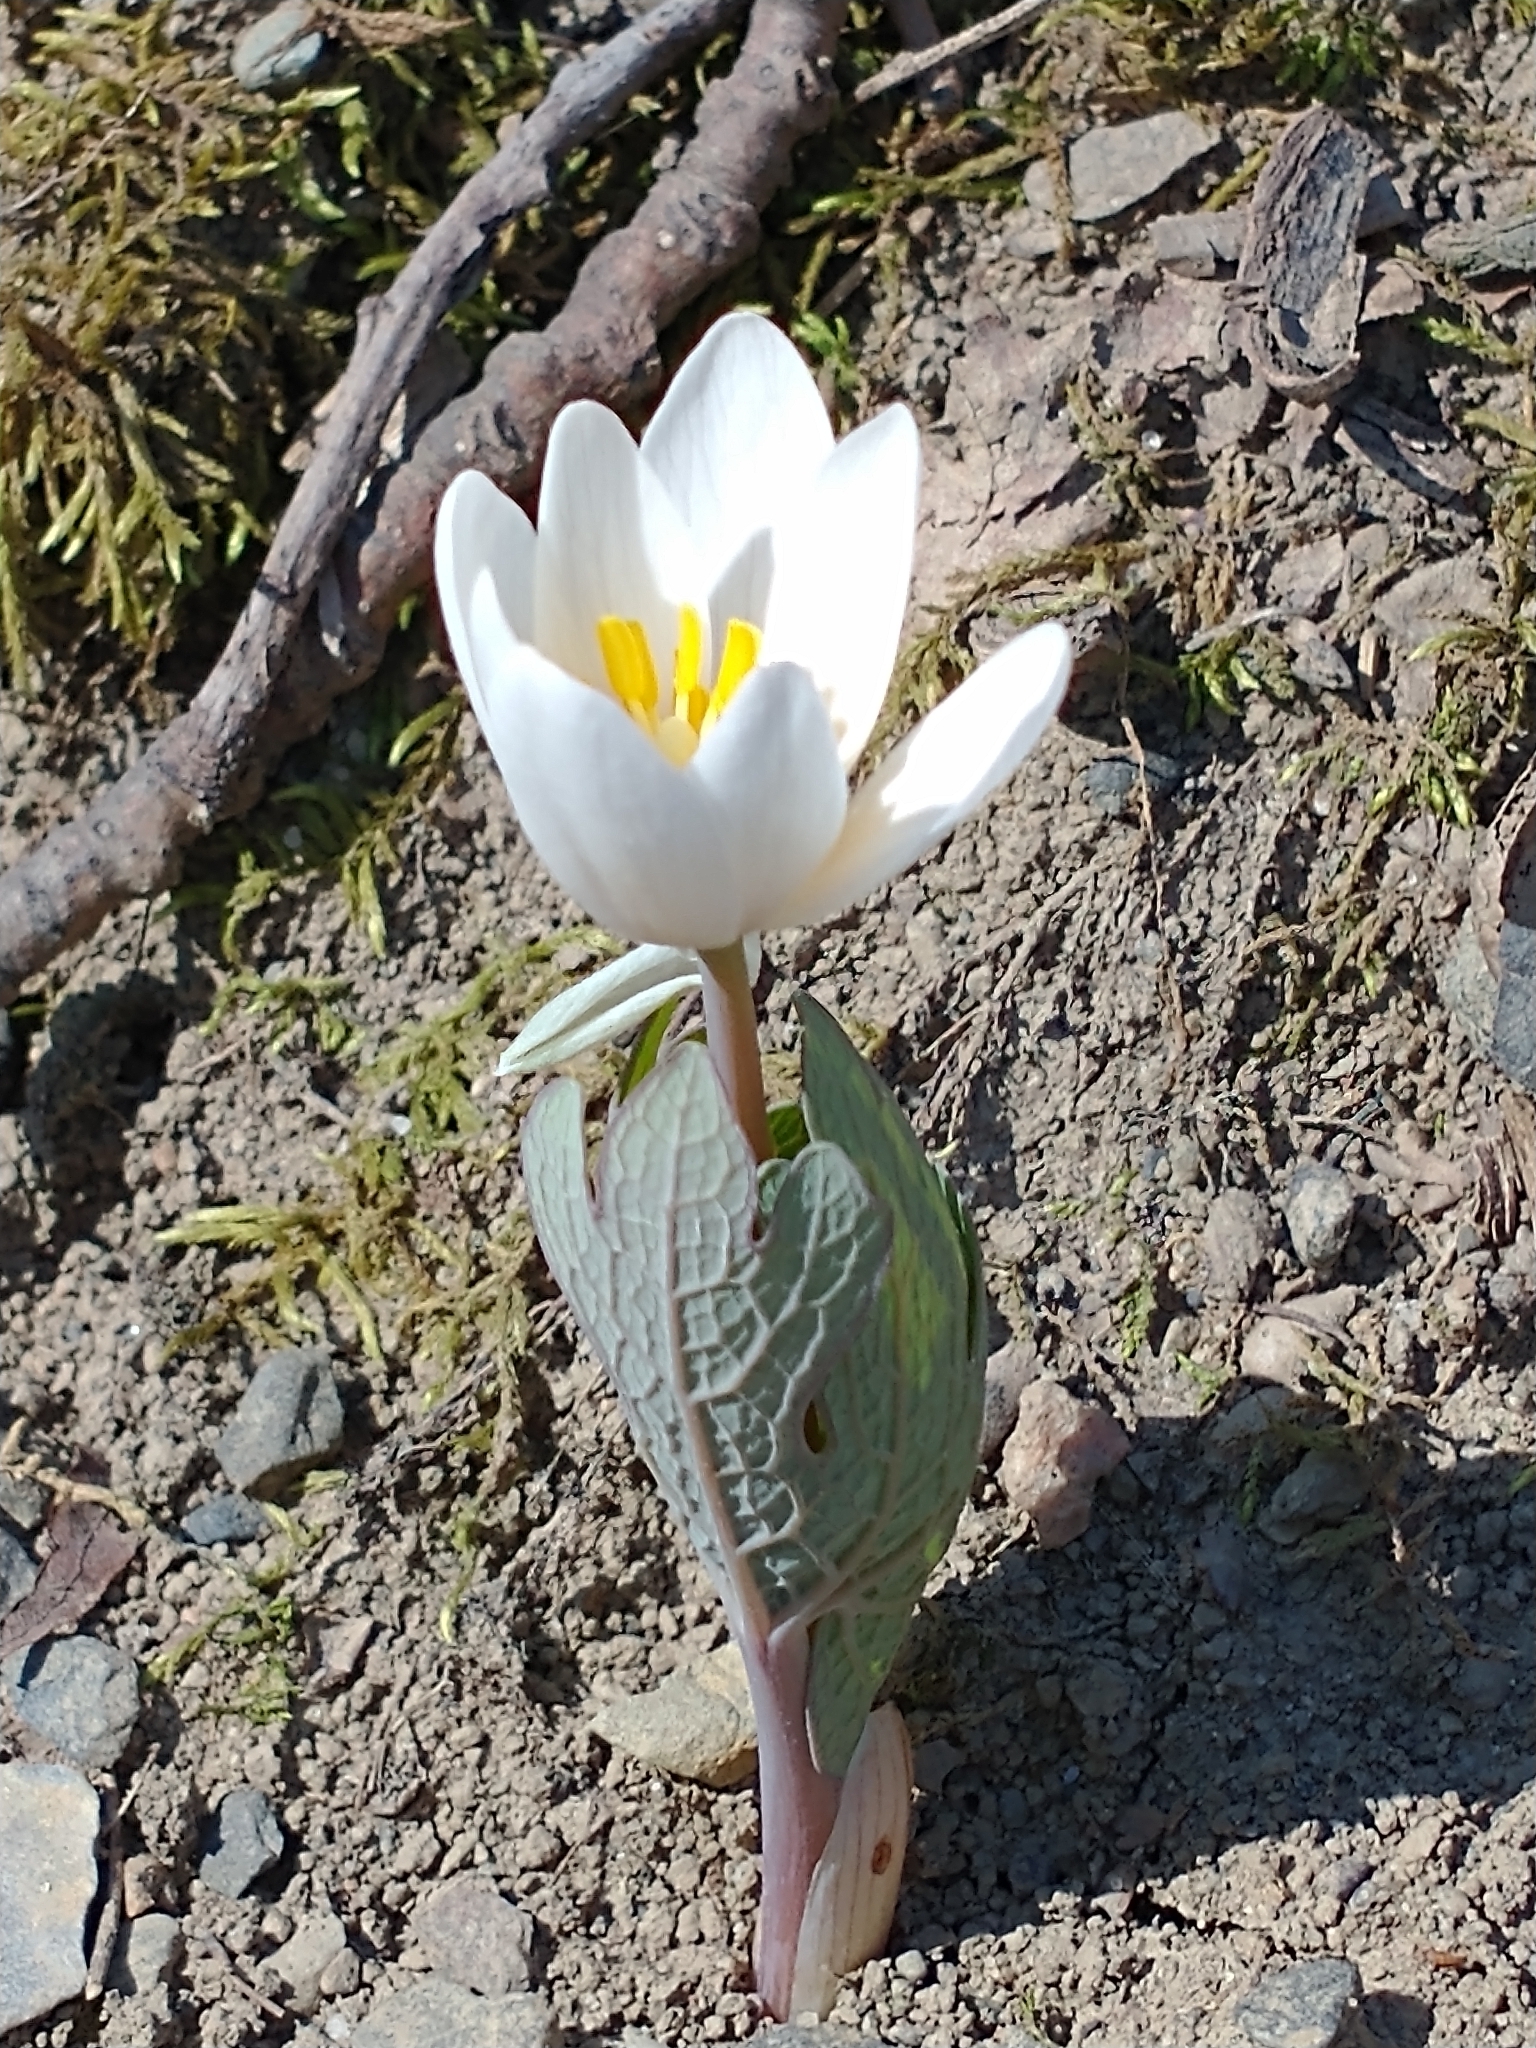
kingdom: Plantae
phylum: Tracheophyta
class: Magnoliopsida
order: Ranunculales
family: Papaveraceae
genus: Sanguinaria
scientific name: Sanguinaria canadensis
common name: Bloodroot
